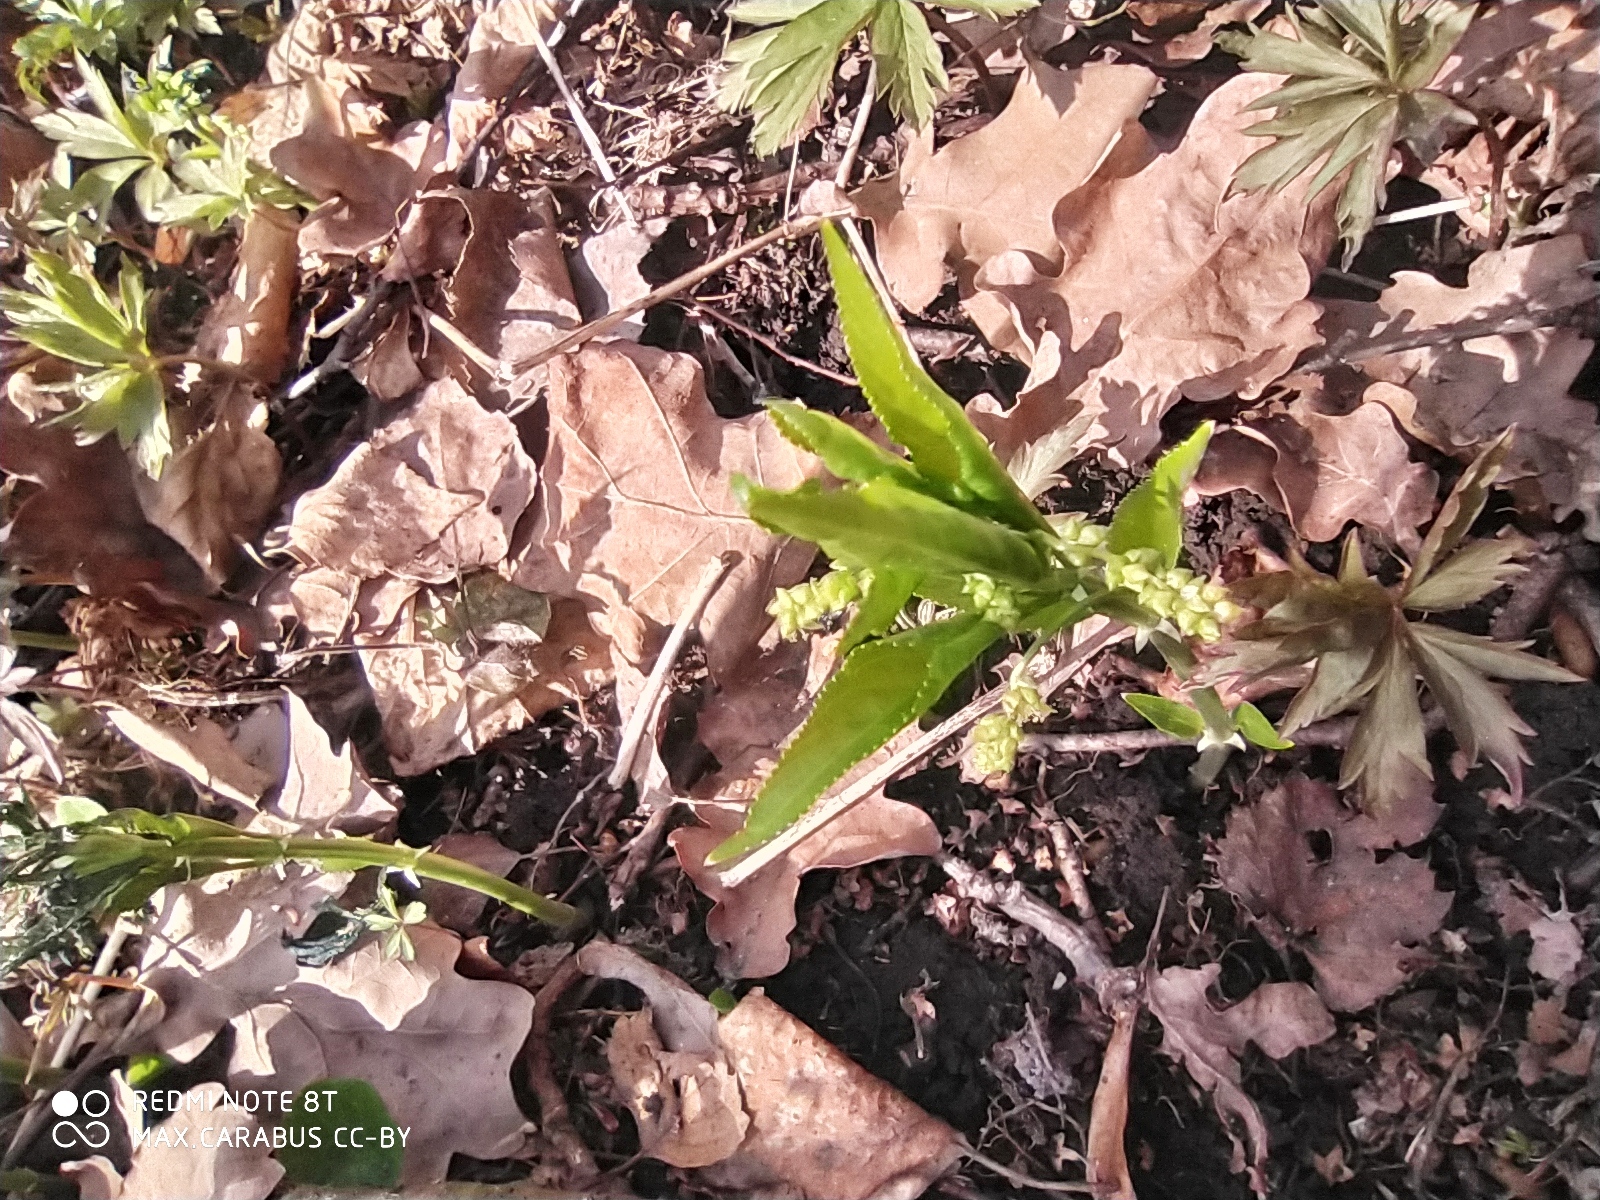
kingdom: Plantae
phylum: Tracheophyta
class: Magnoliopsida
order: Malpighiales
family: Euphorbiaceae
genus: Mercurialis
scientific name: Mercurialis perennis
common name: Dog mercury
